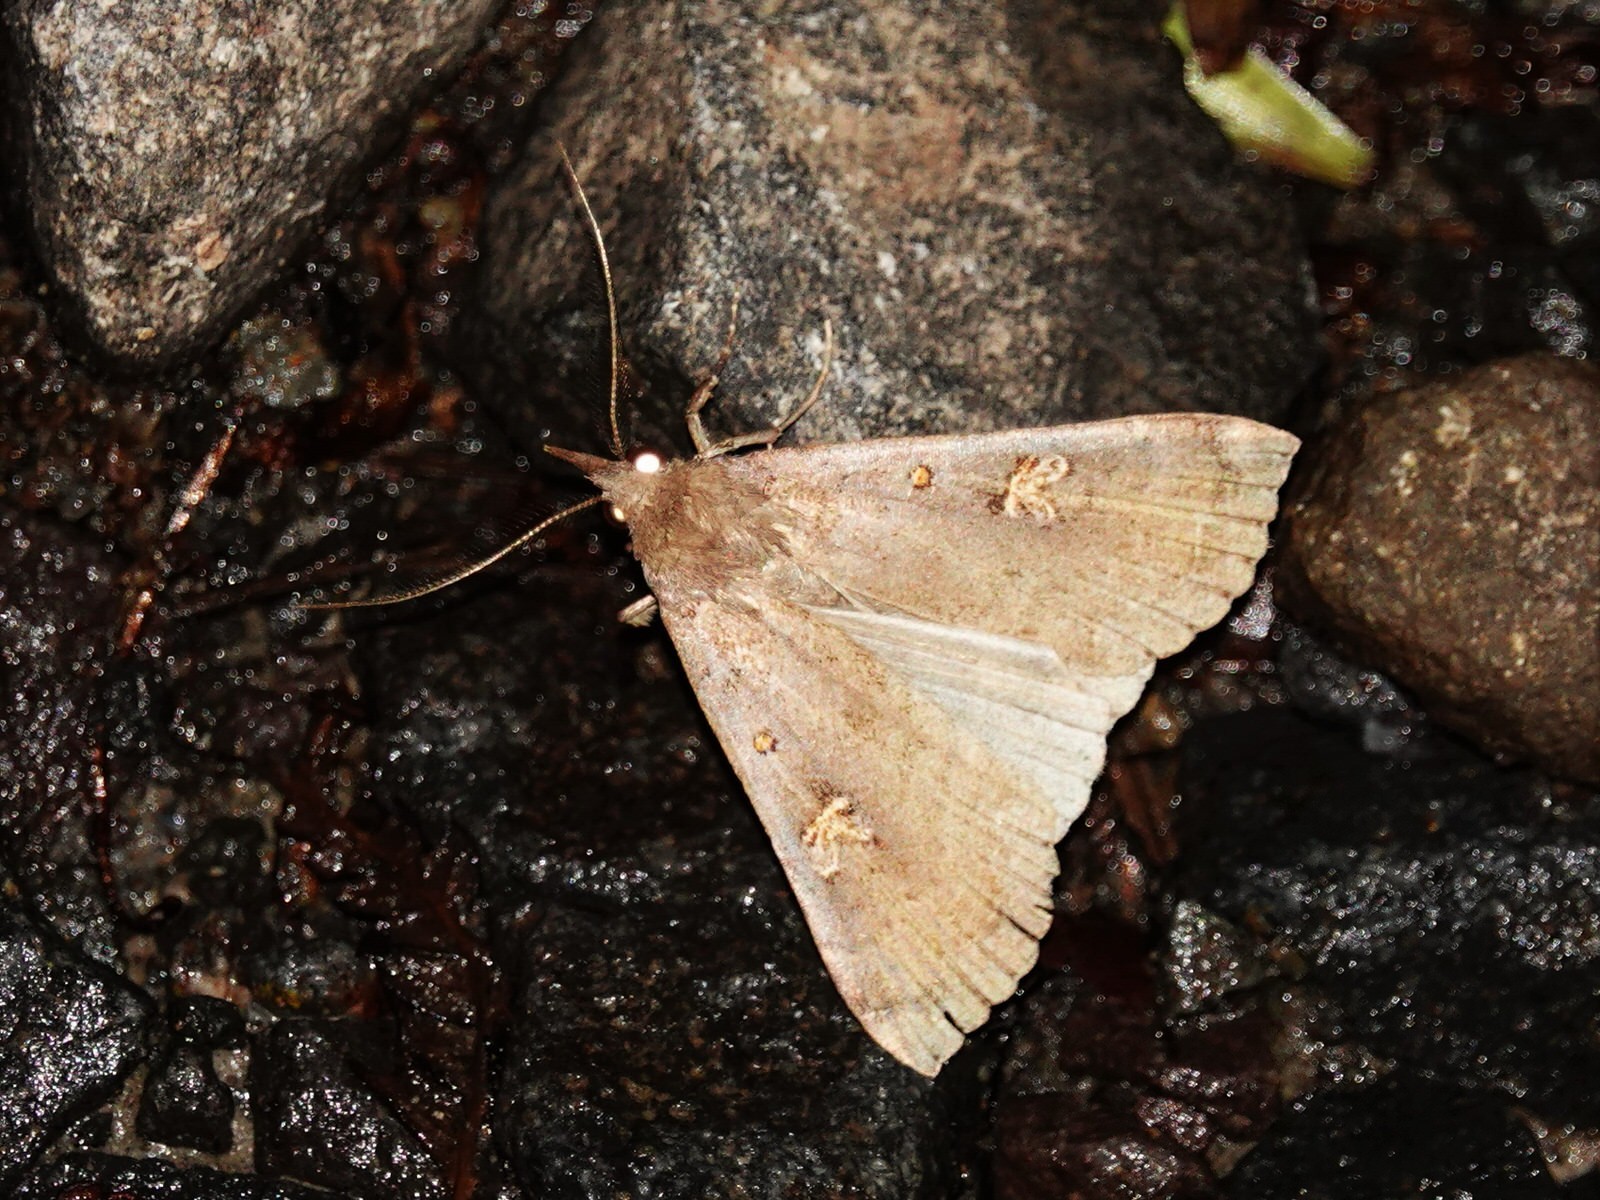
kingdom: Animalia
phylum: Arthropoda
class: Insecta
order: Lepidoptera
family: Erebidae
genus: Rhapsa
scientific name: Rhapsa scotosialis
